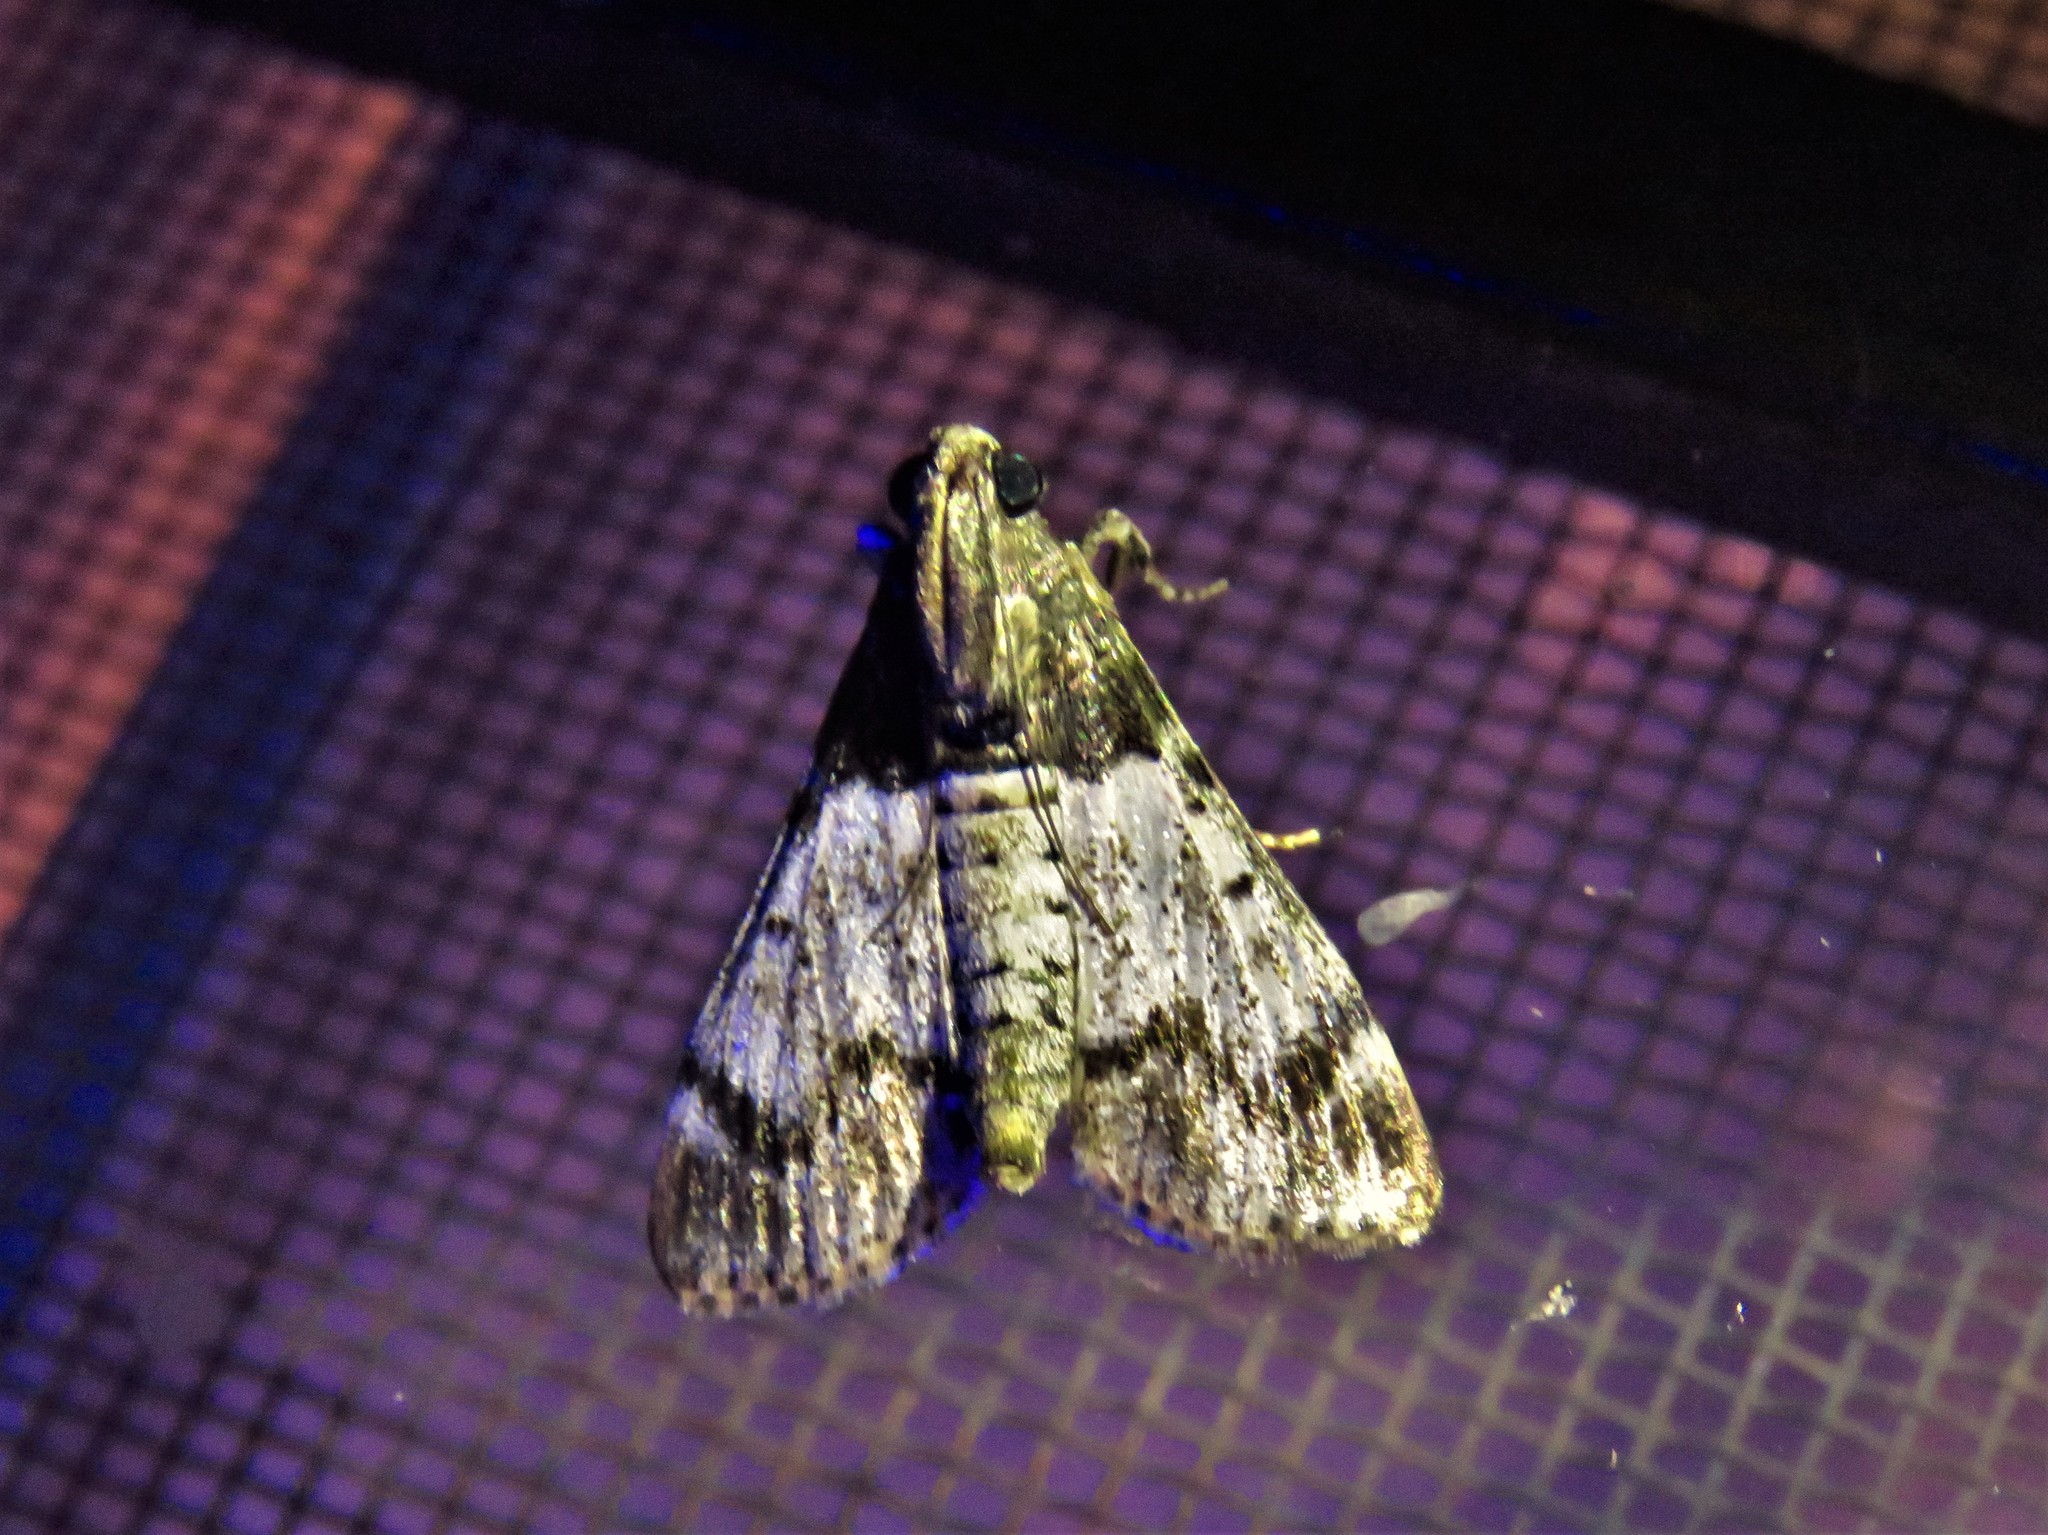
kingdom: Animalia
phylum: Arthropoda
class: Insecta
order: Lepidoptera
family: Pyralidae
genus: Epipaschia
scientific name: Epipaschia superatalis
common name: Dimorphic macalla moth
